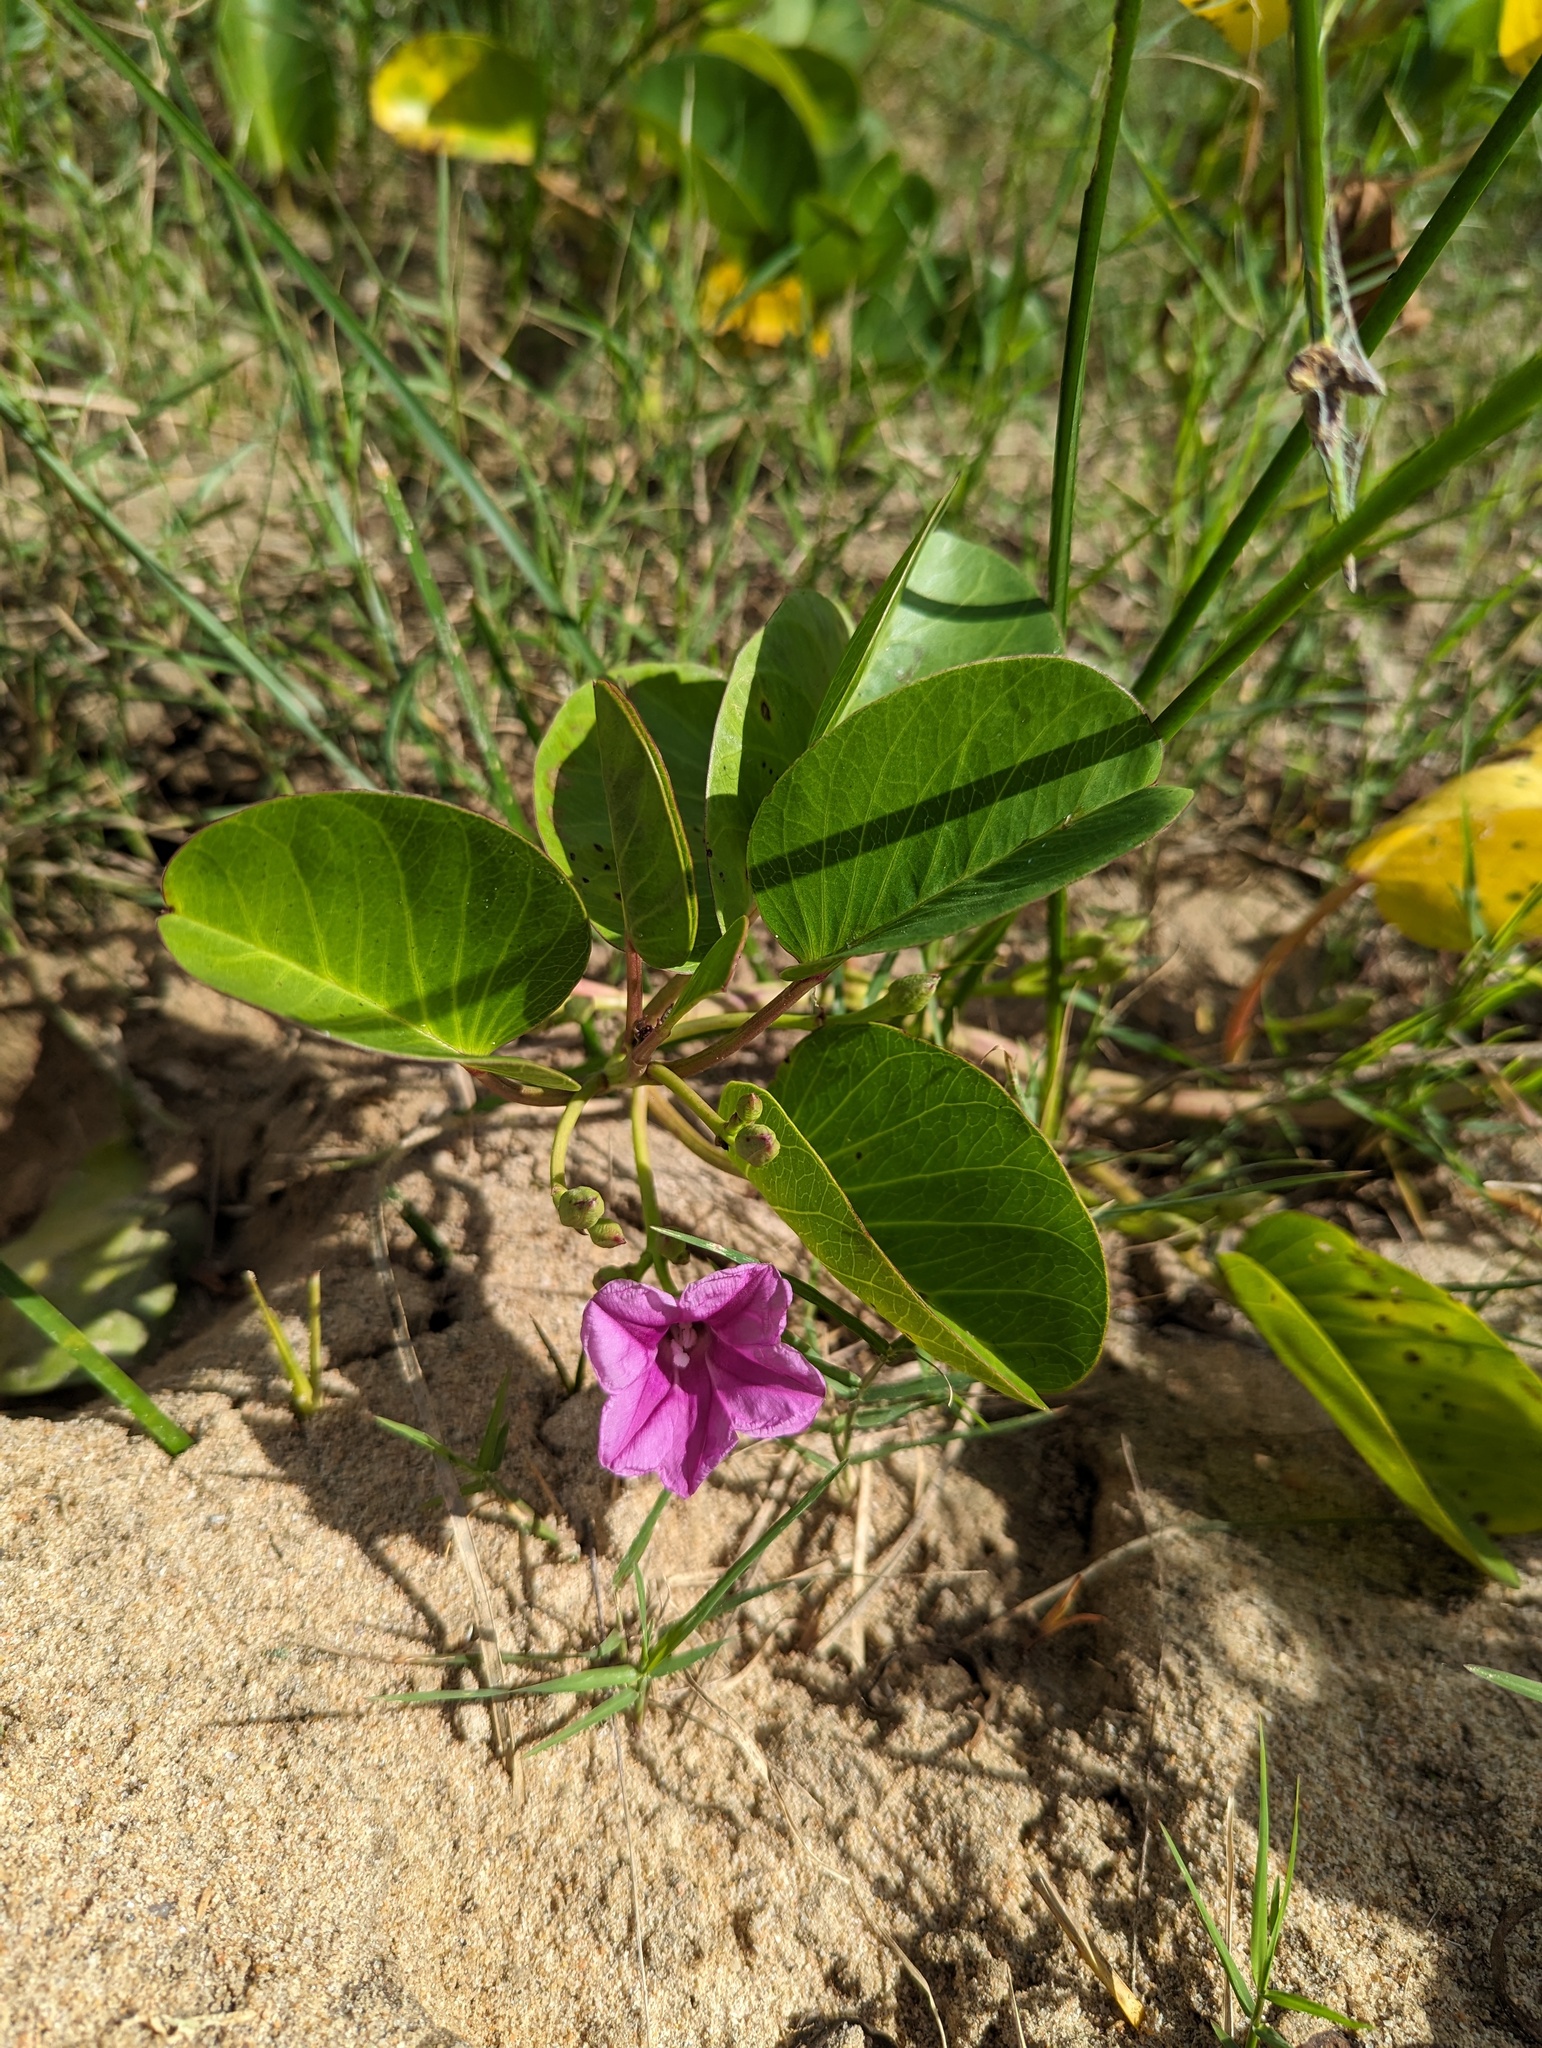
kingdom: Plantae
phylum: Tracheophyta
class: Magnoliopsida
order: Solanales
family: Convolvulaceae
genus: Ipomoea
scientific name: Ipomoea pes-caprae
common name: Beach morning glory
